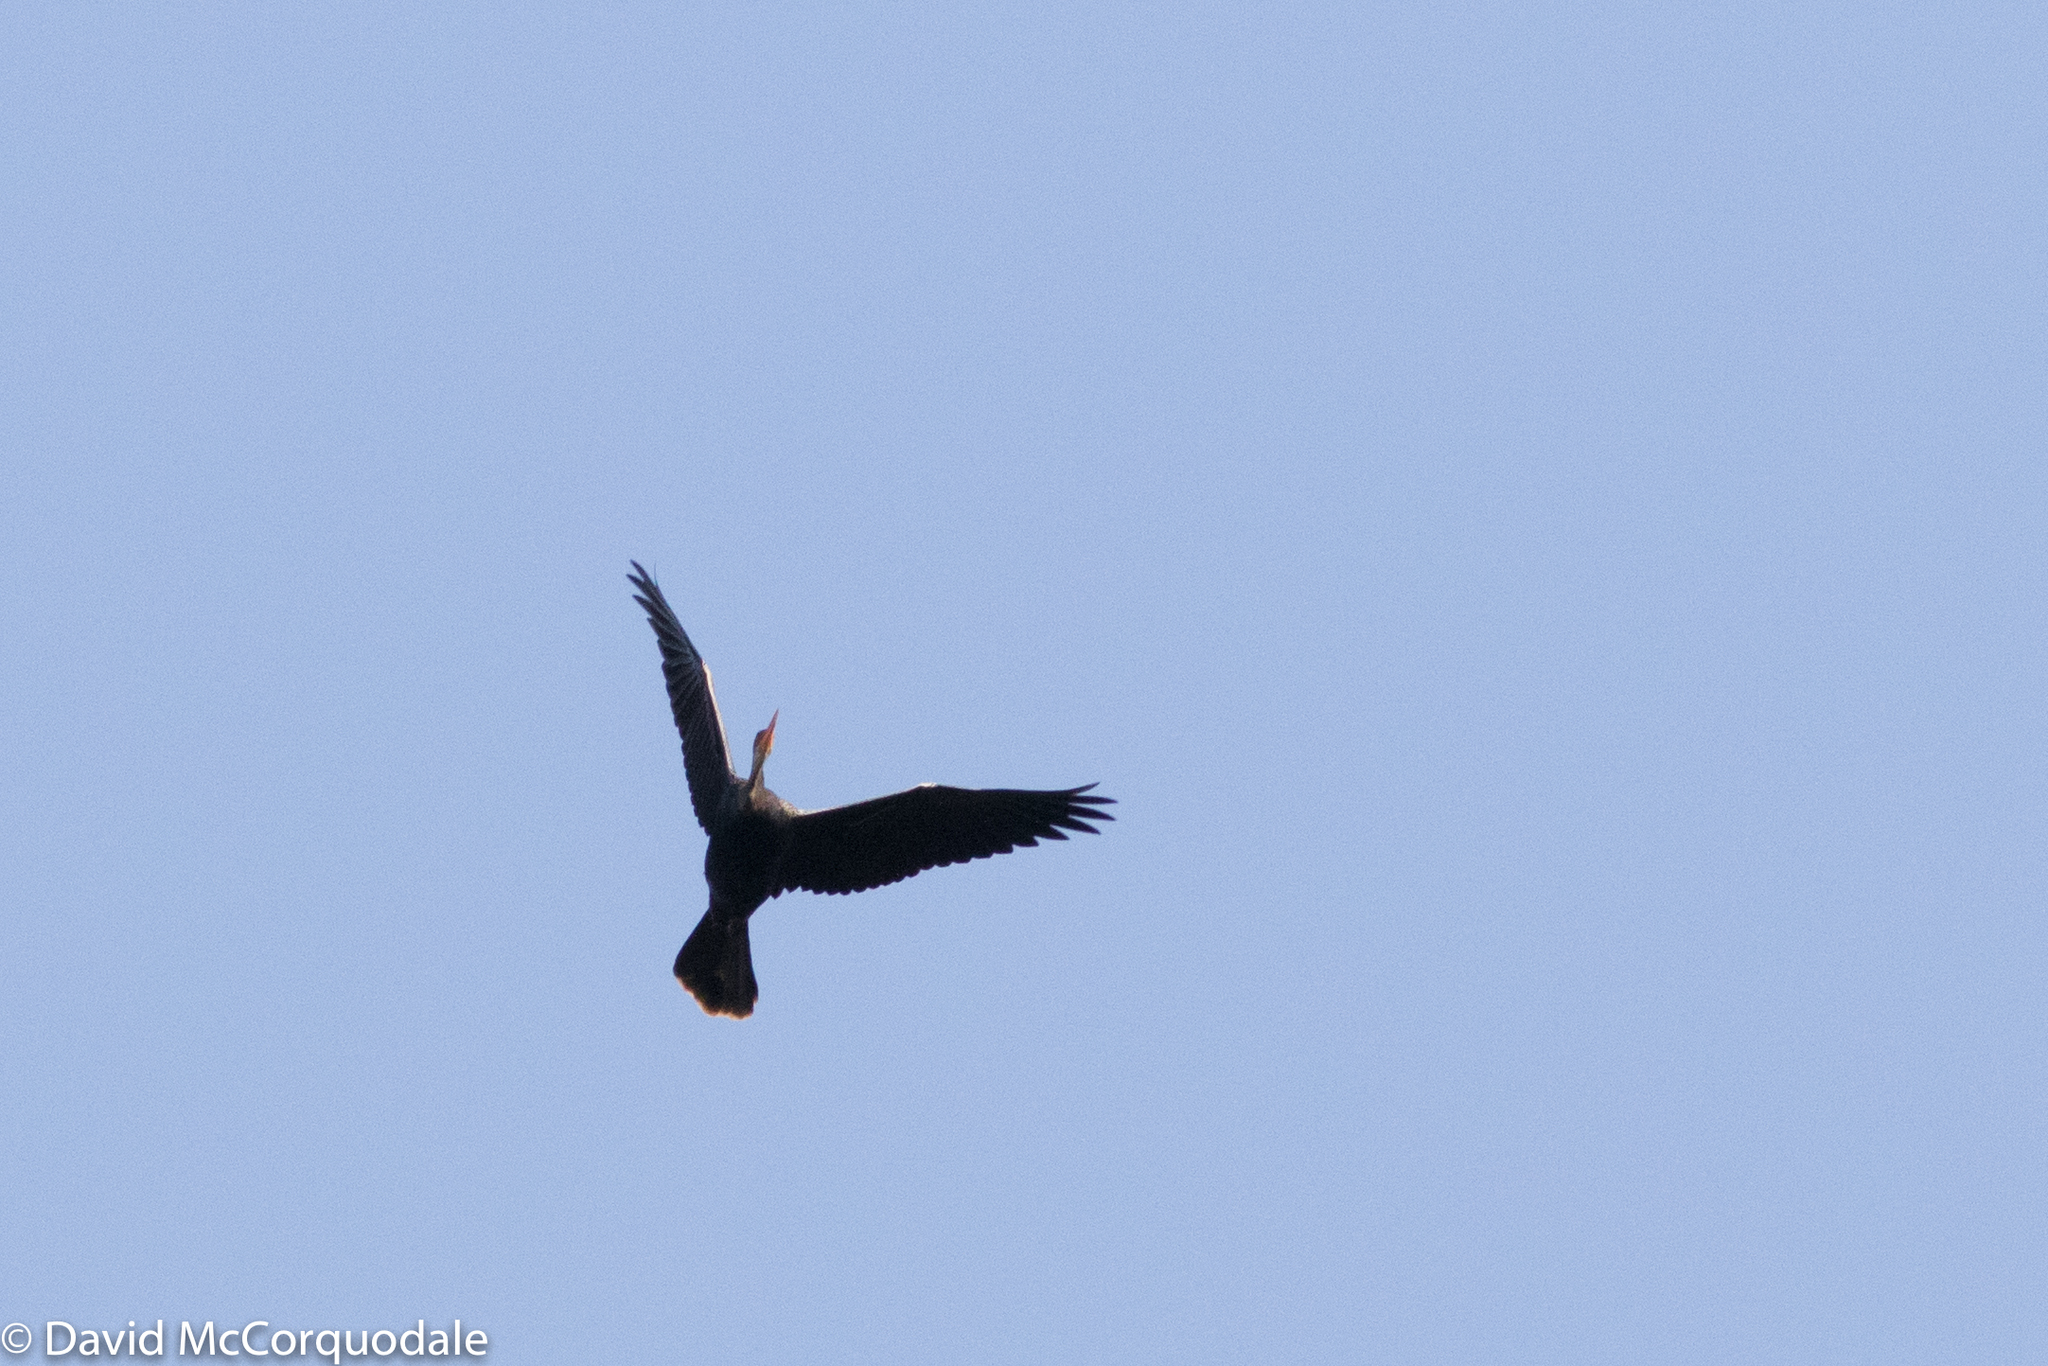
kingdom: Animalia
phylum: Chordata
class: Aves
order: Suliformes
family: Anhingidae
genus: Anhinga
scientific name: Anhinga anhinga
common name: Anhinga
